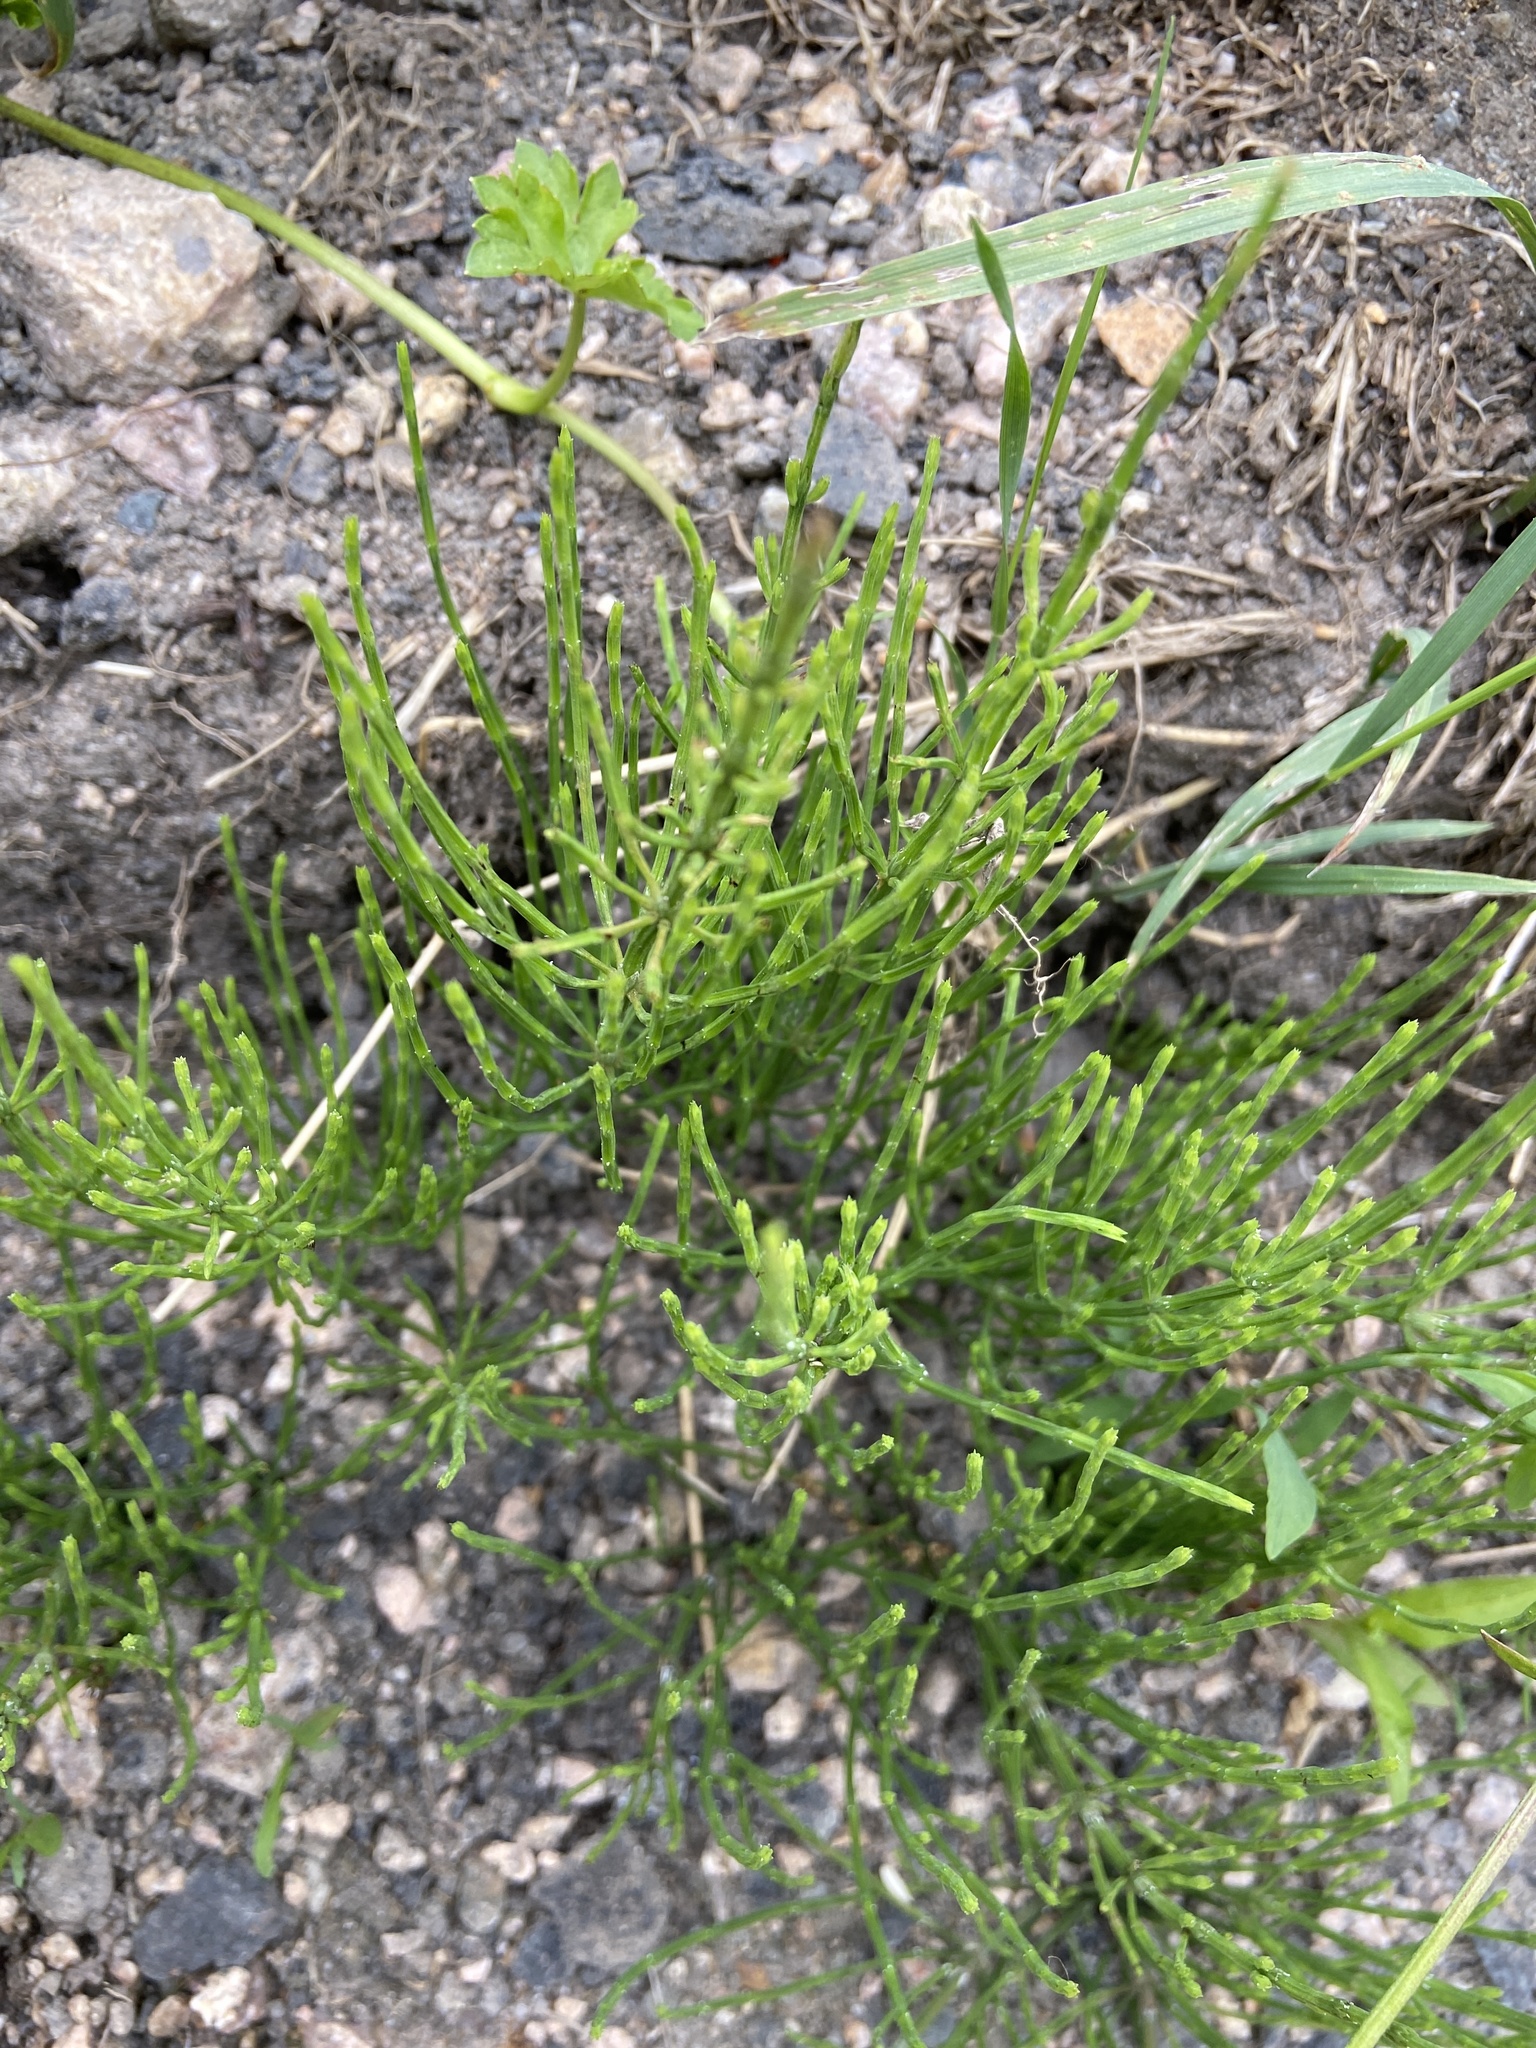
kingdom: Plantae
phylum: Tracheophyta
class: Polypodiopsida
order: Equisetales
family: Equisetaceae
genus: Equisetum
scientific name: Equisetum arvense
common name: Field horsetail
